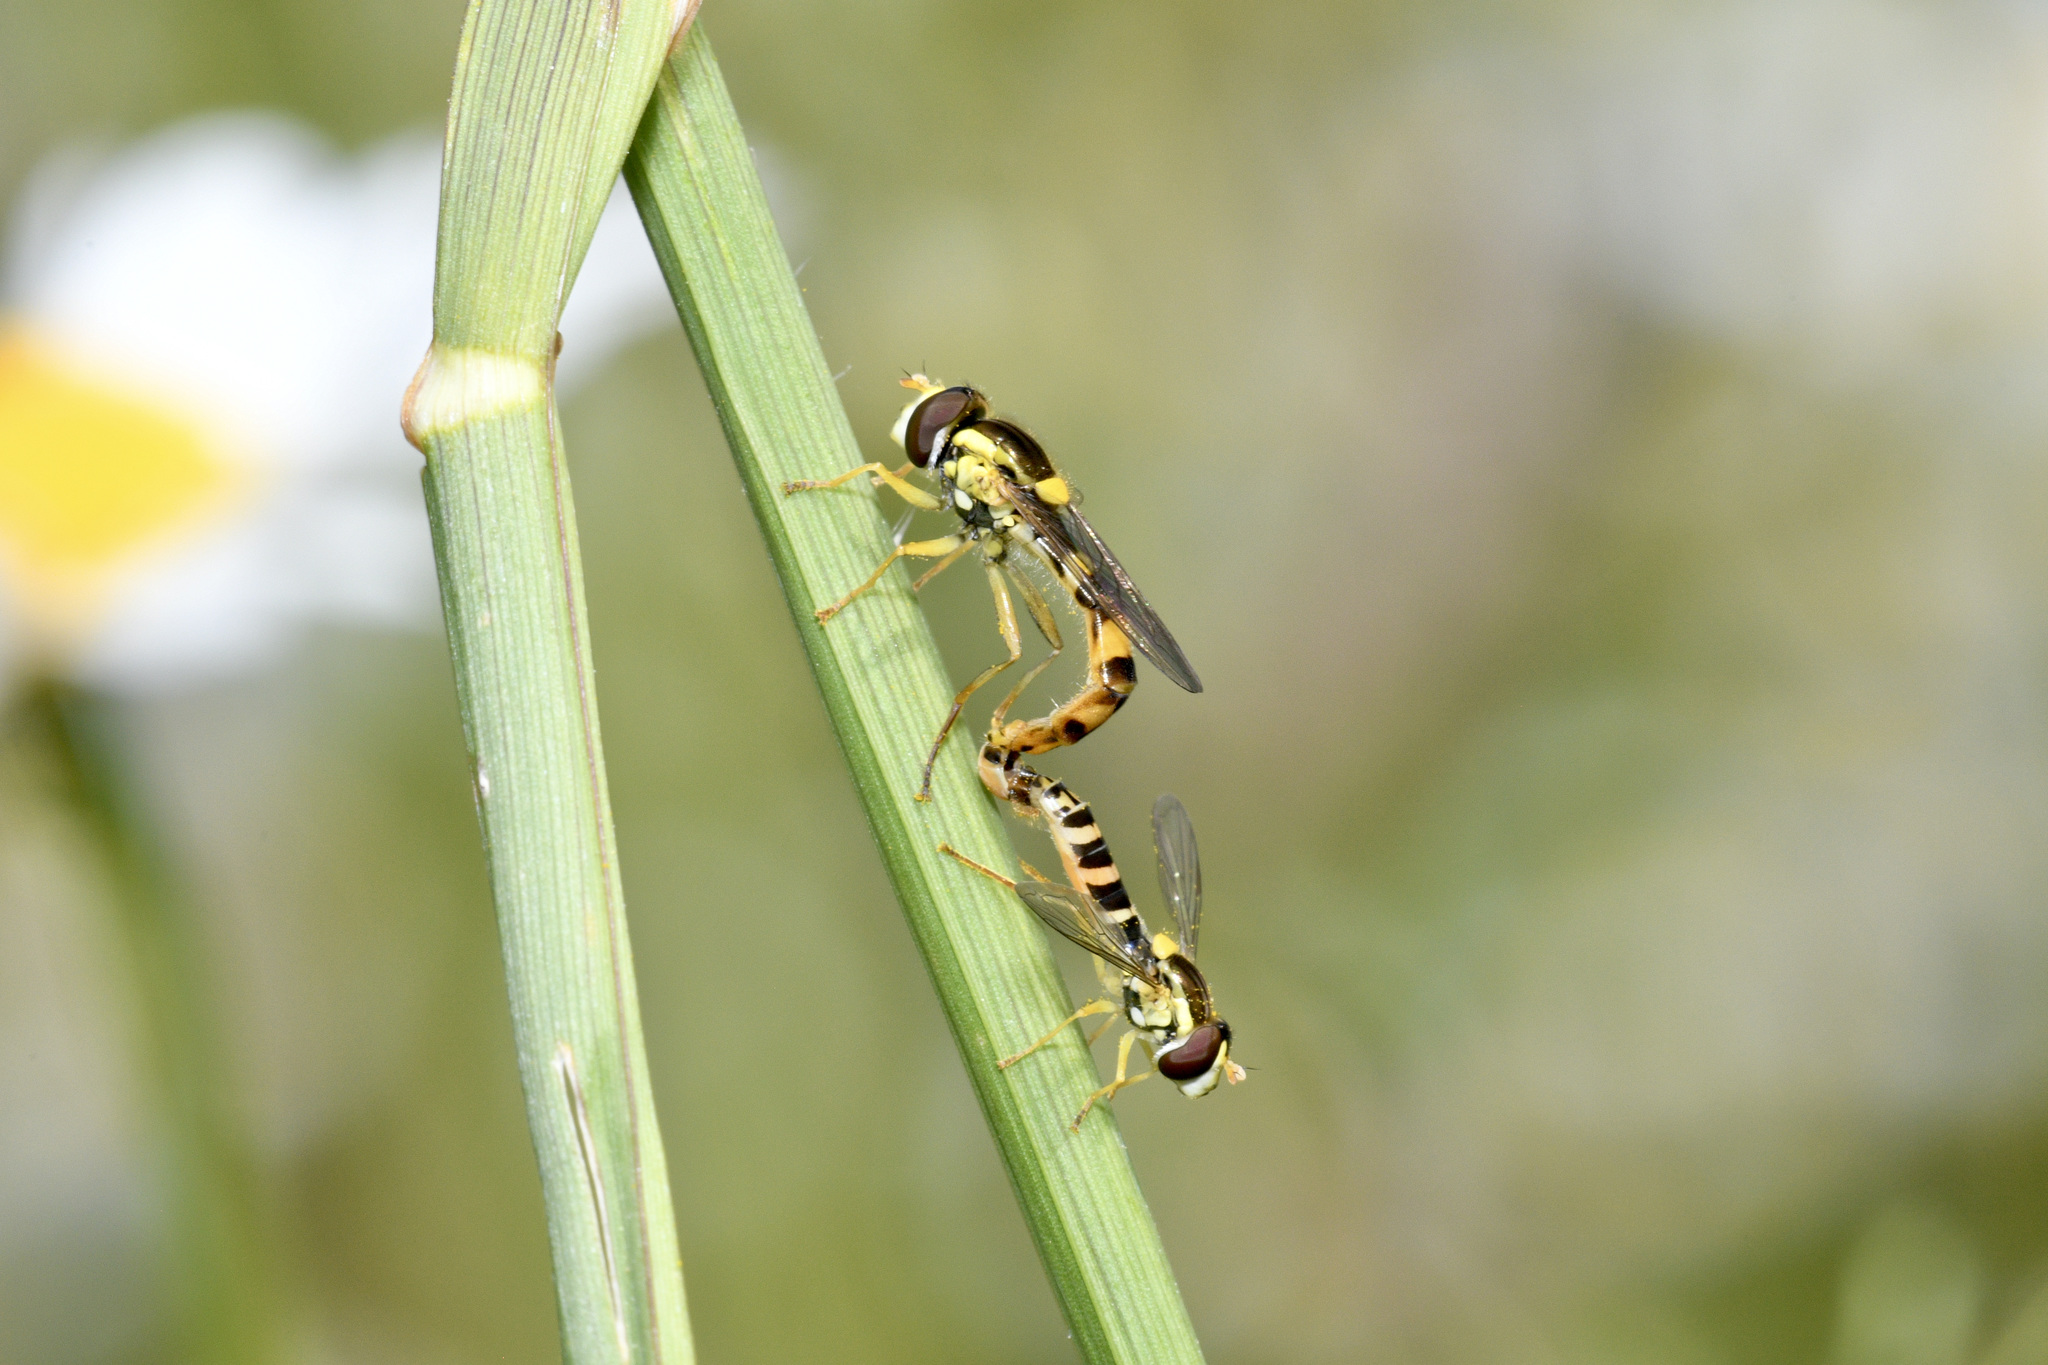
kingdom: Animalia
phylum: Arthropoda
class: Insecta
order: Diptera
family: Syrphidae
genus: Sphaerophoria
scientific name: Sphaerophoria scripta
